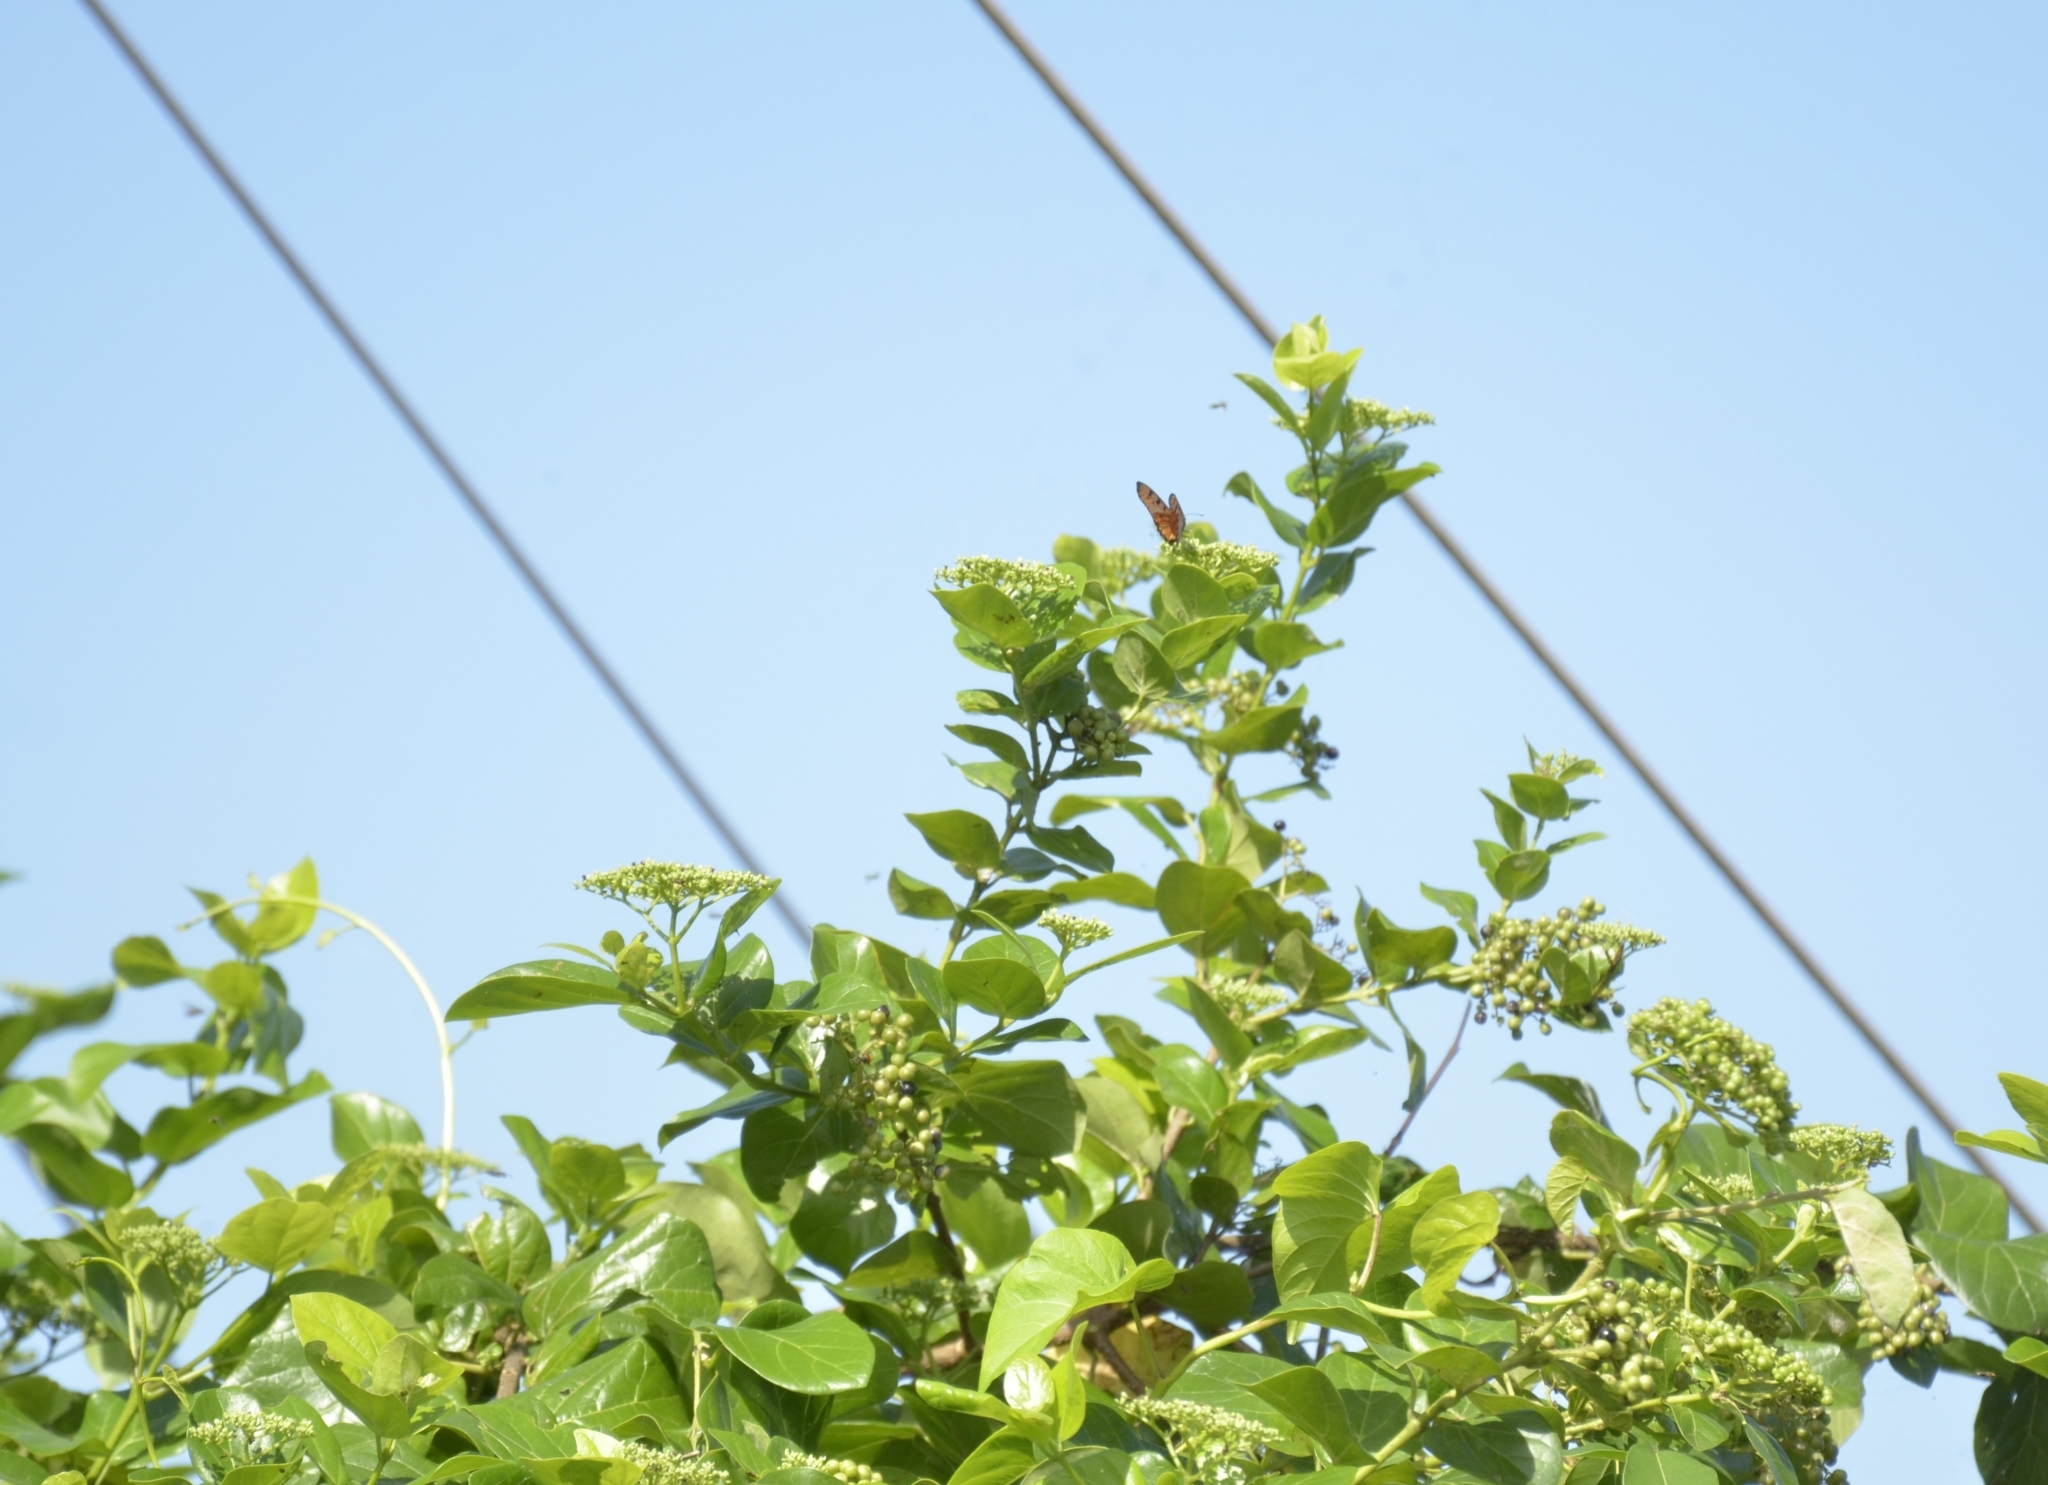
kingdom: Plantae
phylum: Tracheophyta
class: Magnoliopsida
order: Lamiales
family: Lamiaceae
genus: Premna
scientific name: Premna serratifolia
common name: Bastard guelder
